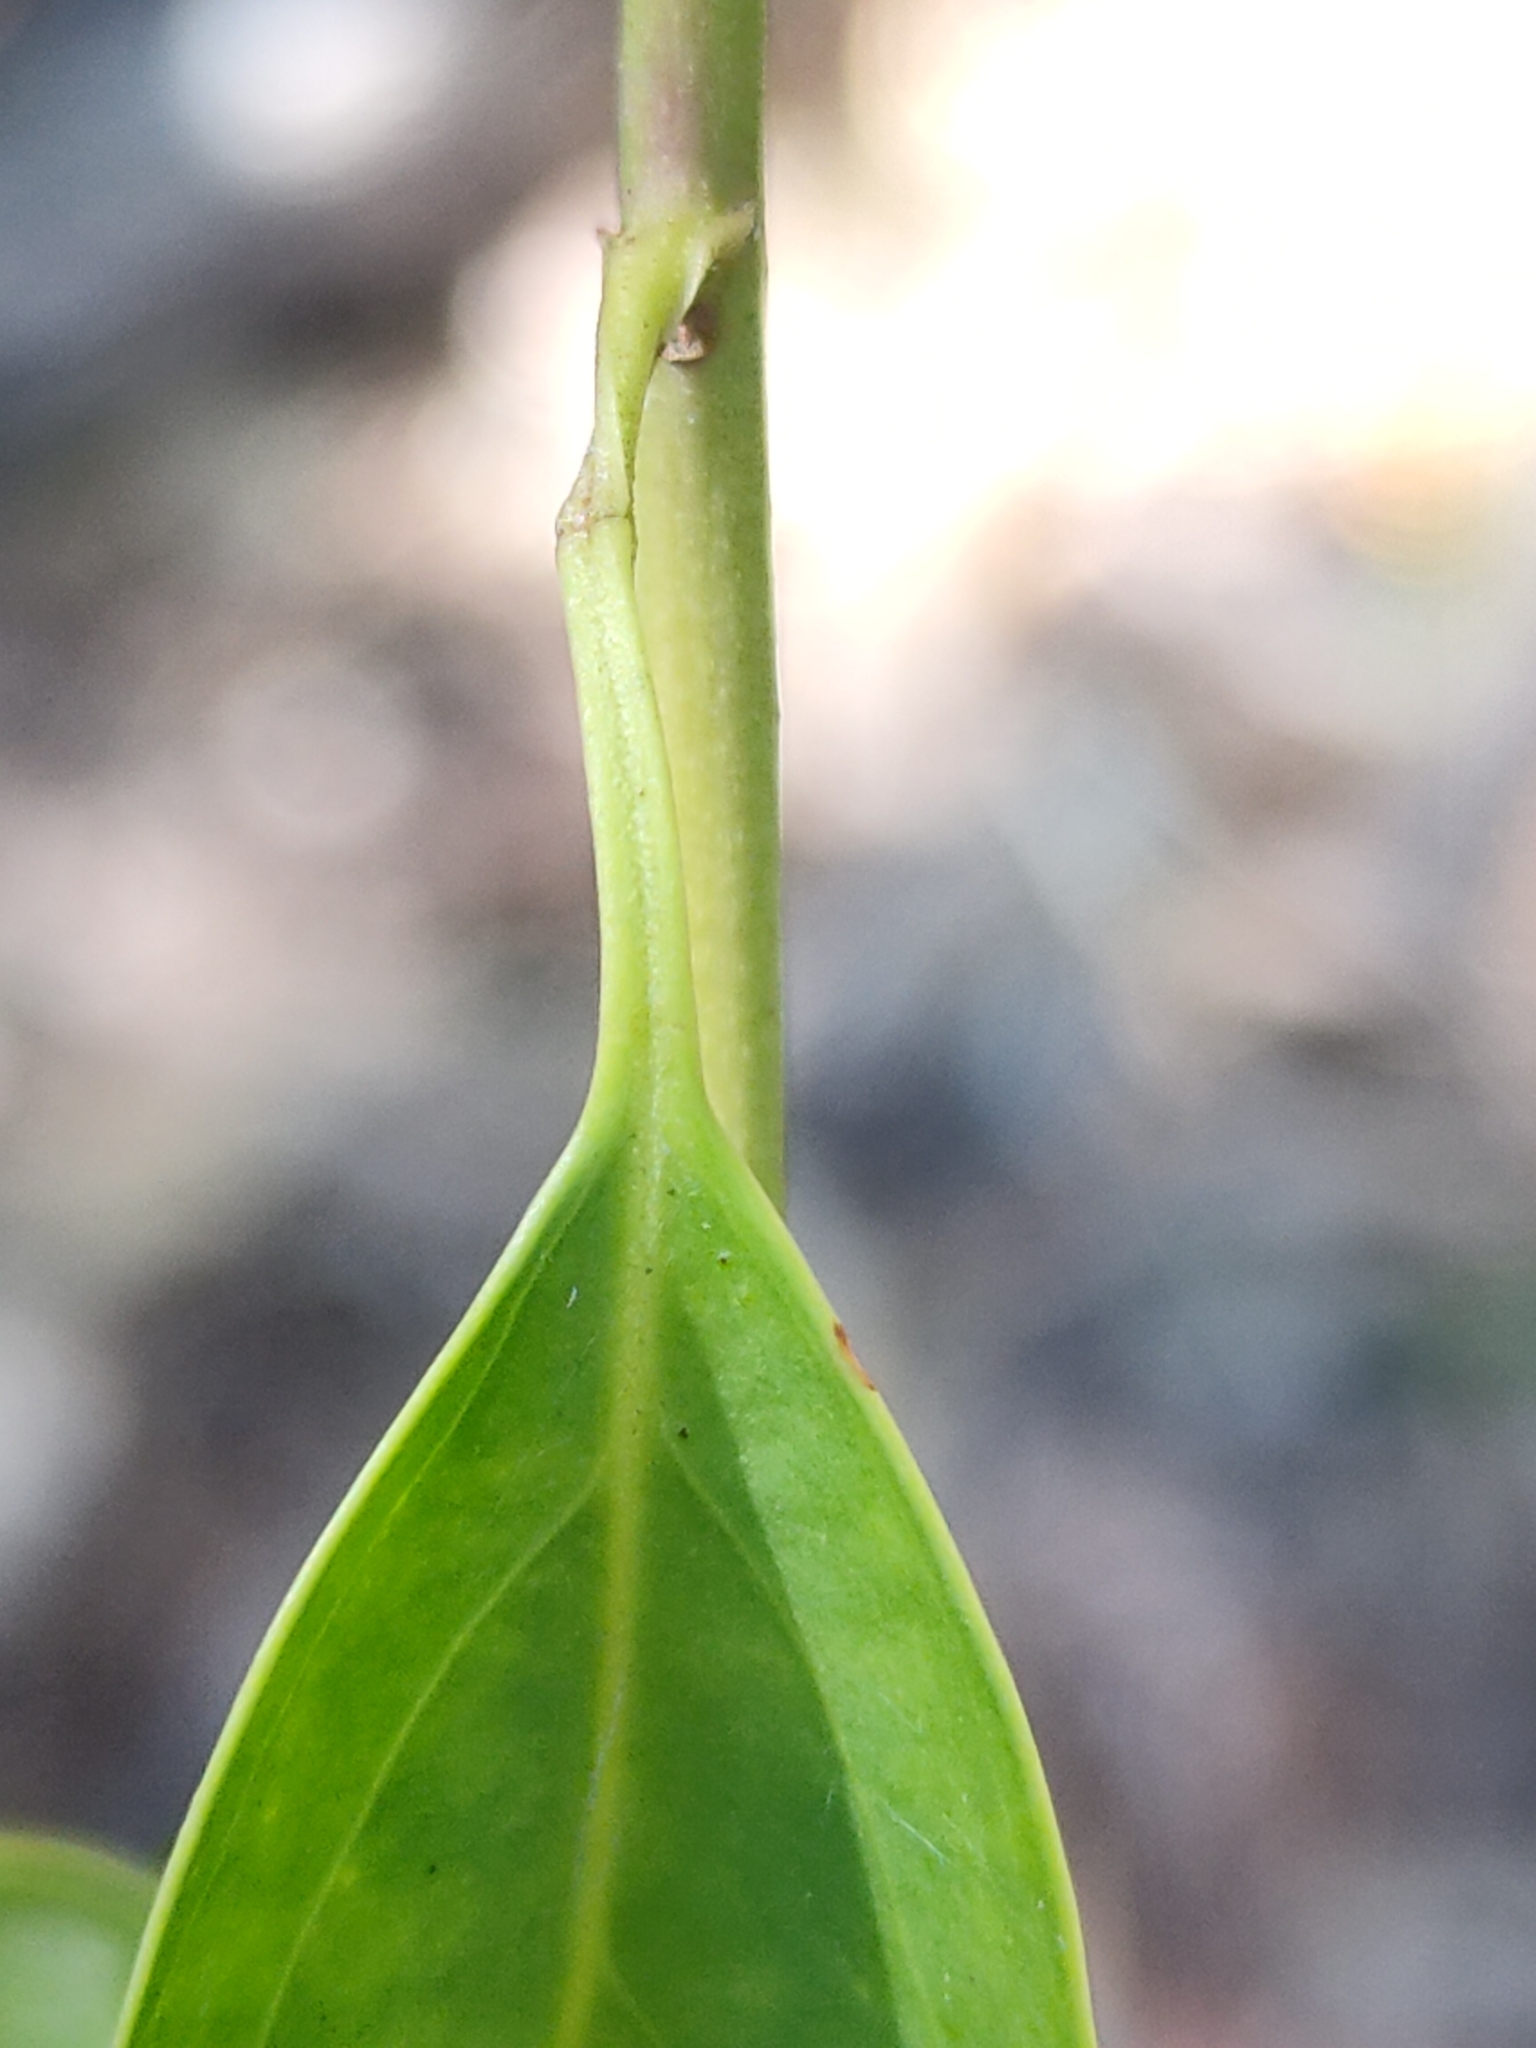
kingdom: Plantae
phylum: Tracheophyta
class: Magnoliopsida
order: Lamiales
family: Oleaceae
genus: Jasminum
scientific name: Jasminum simplicifolium
